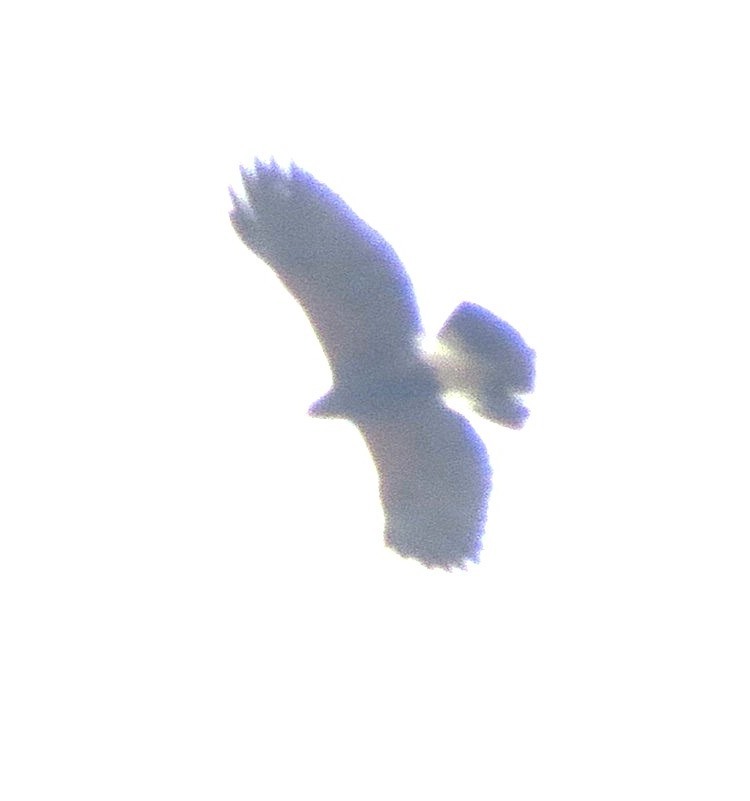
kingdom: Animalia
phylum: Chordata
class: Aves
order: Accipitriformes
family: Accipitridae
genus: Parabuteo
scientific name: Parabuteo unicinctus
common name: Harris's hawk
